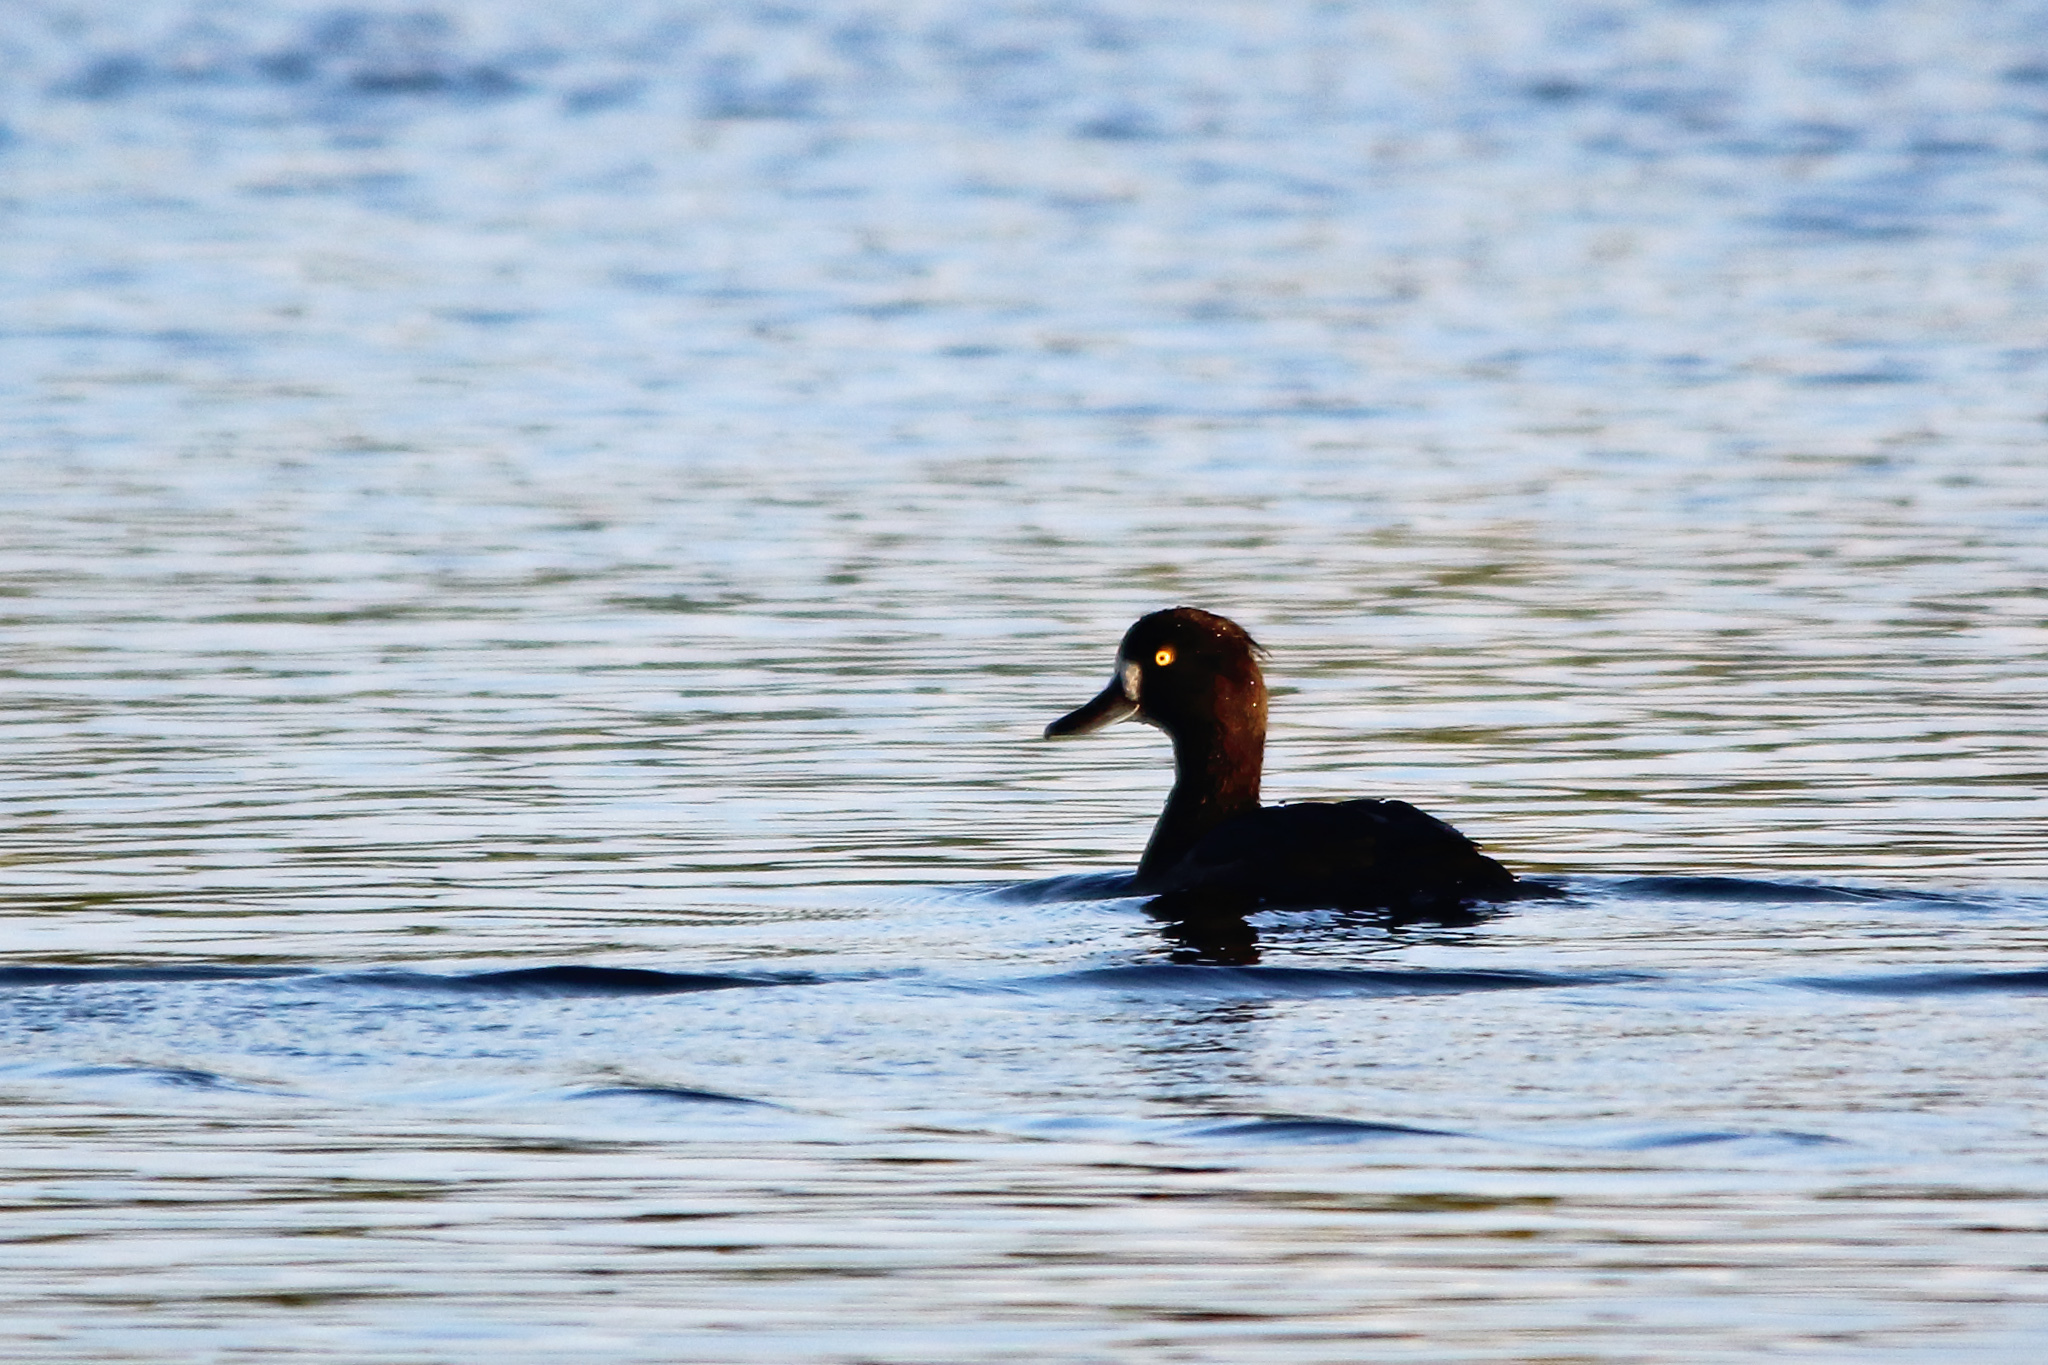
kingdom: Animalia
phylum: Chordata
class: Aves
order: Anseriformes
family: Anatidae
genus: Aythya
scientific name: Aythya fuligula
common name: Tufted duck
